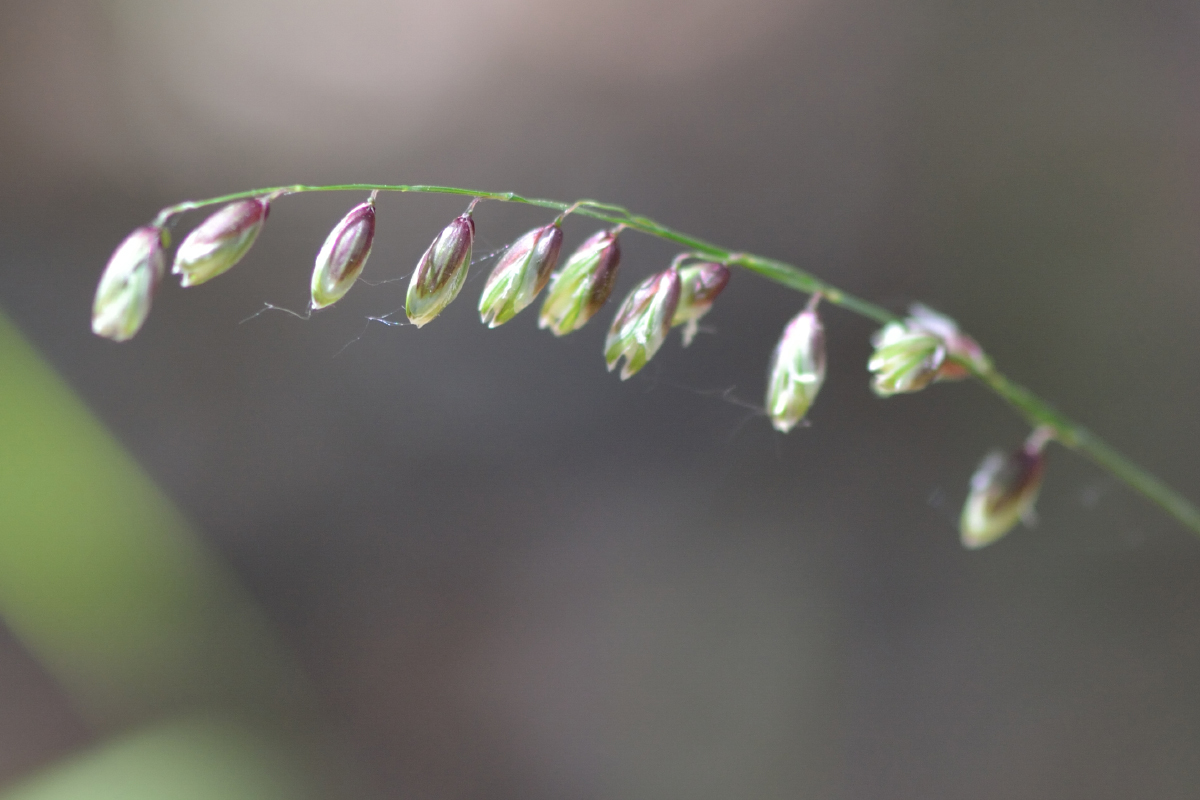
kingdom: Plantae
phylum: Tracheophyta
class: Liliopsida
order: Poales
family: Poaceae
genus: Melica
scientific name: Melica nutans
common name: Mountain melick
